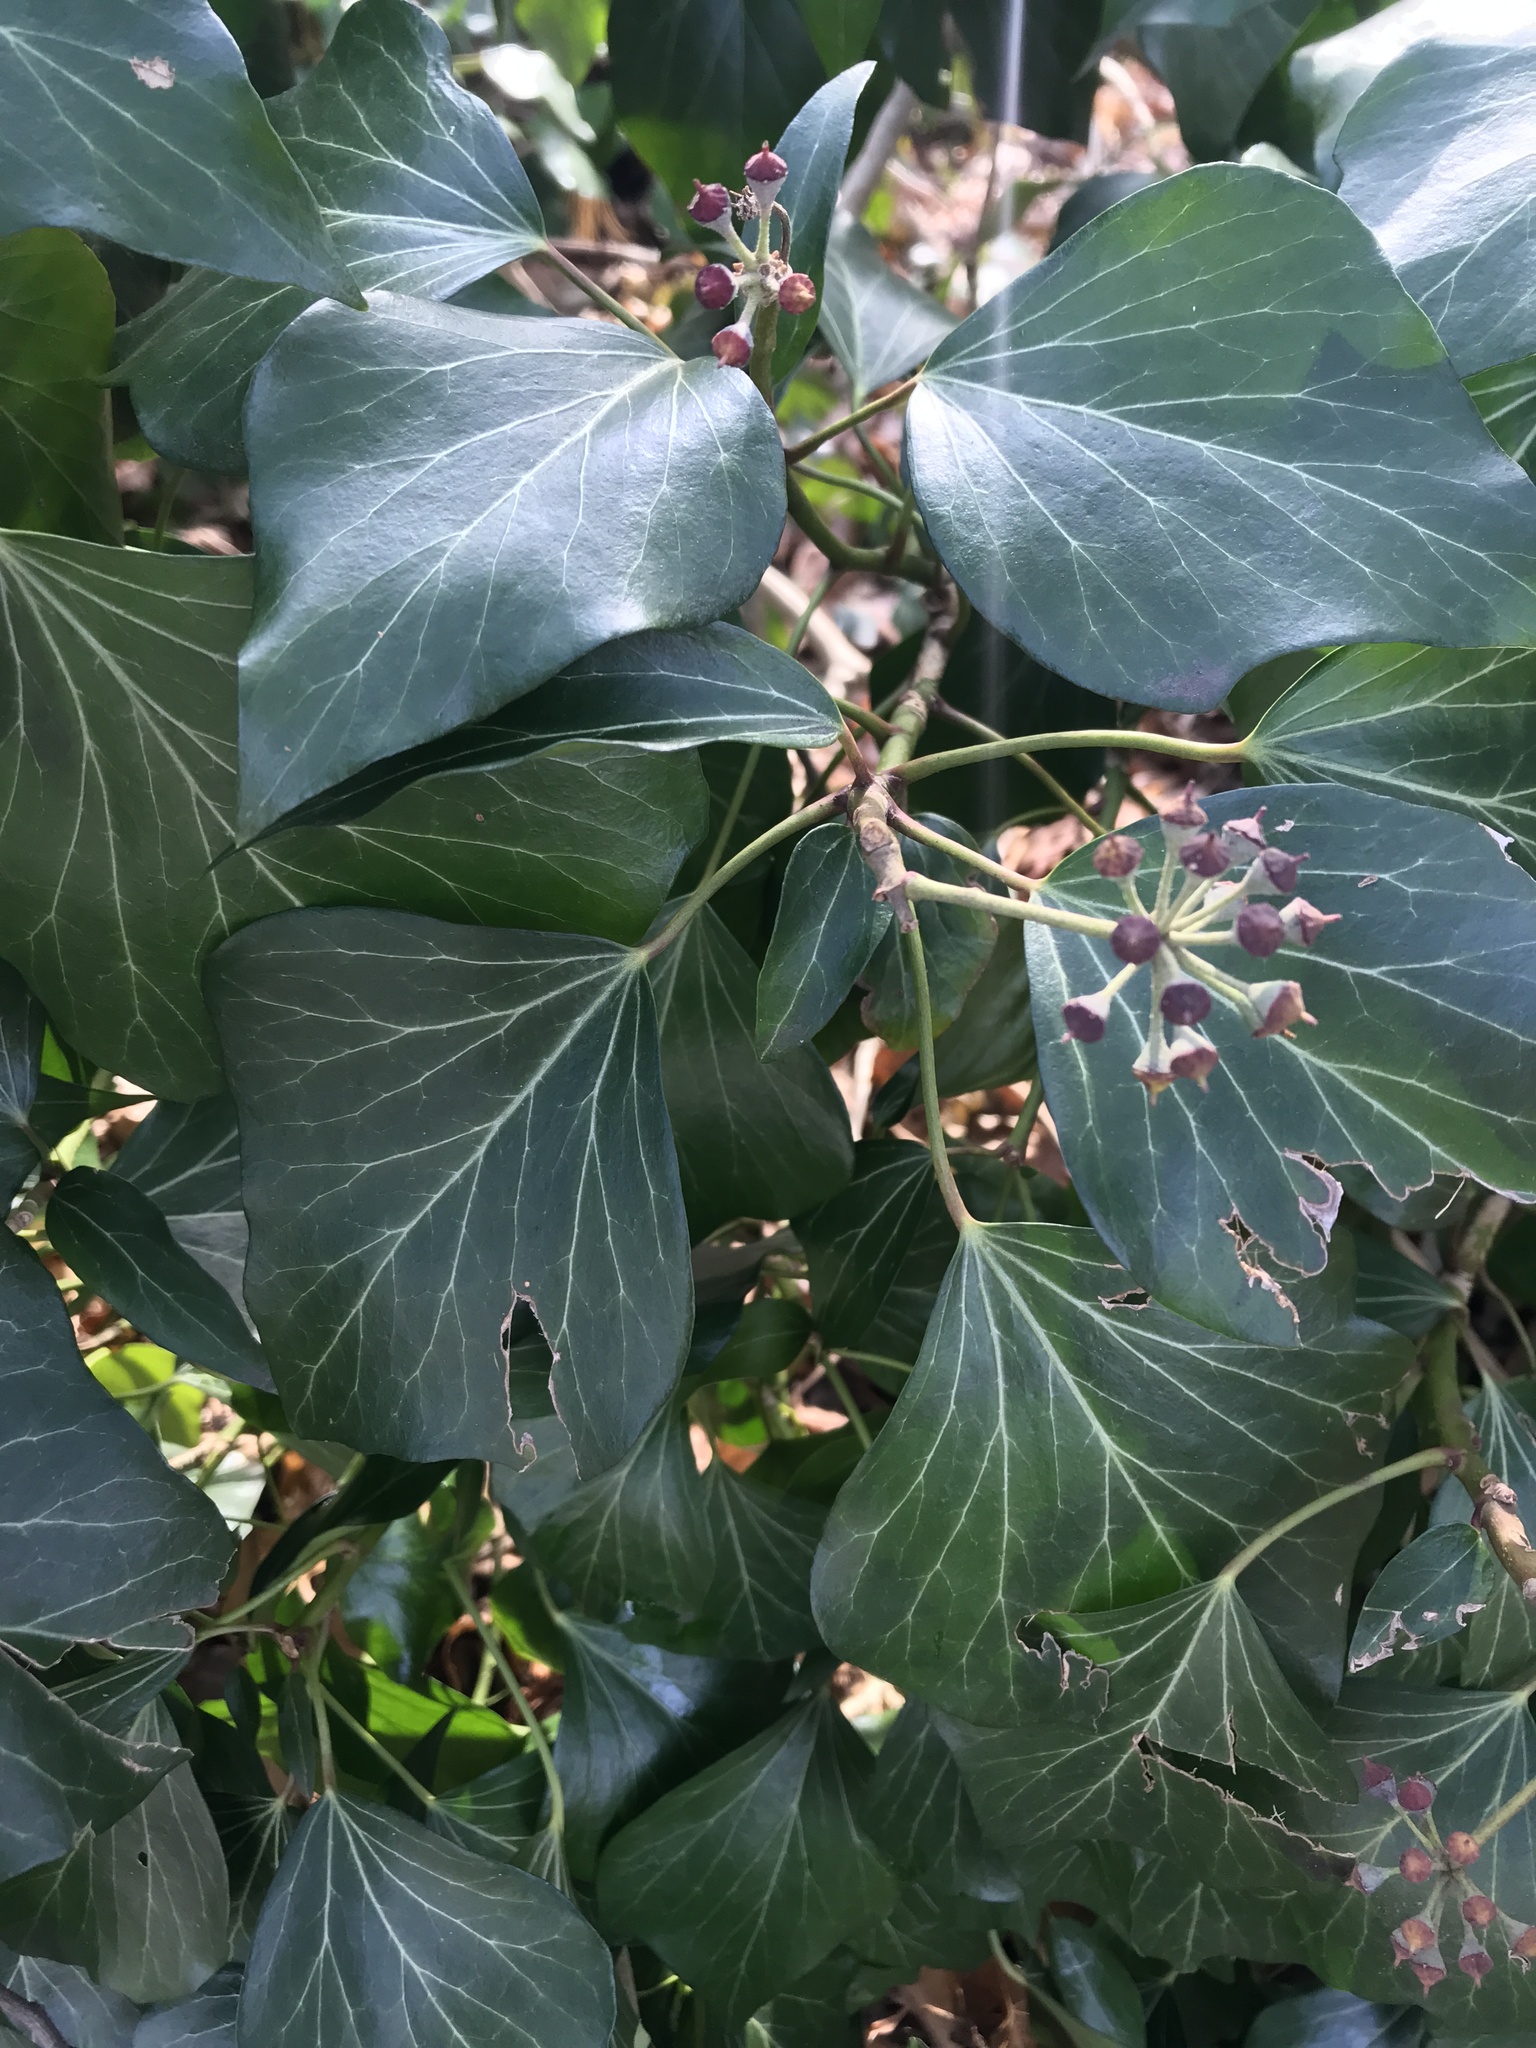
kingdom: Plantae
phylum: Tracheophyta
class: Magnoliopsida
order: Apiales
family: Araliaceae
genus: Hedera
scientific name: Hedera helix
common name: Ivy
